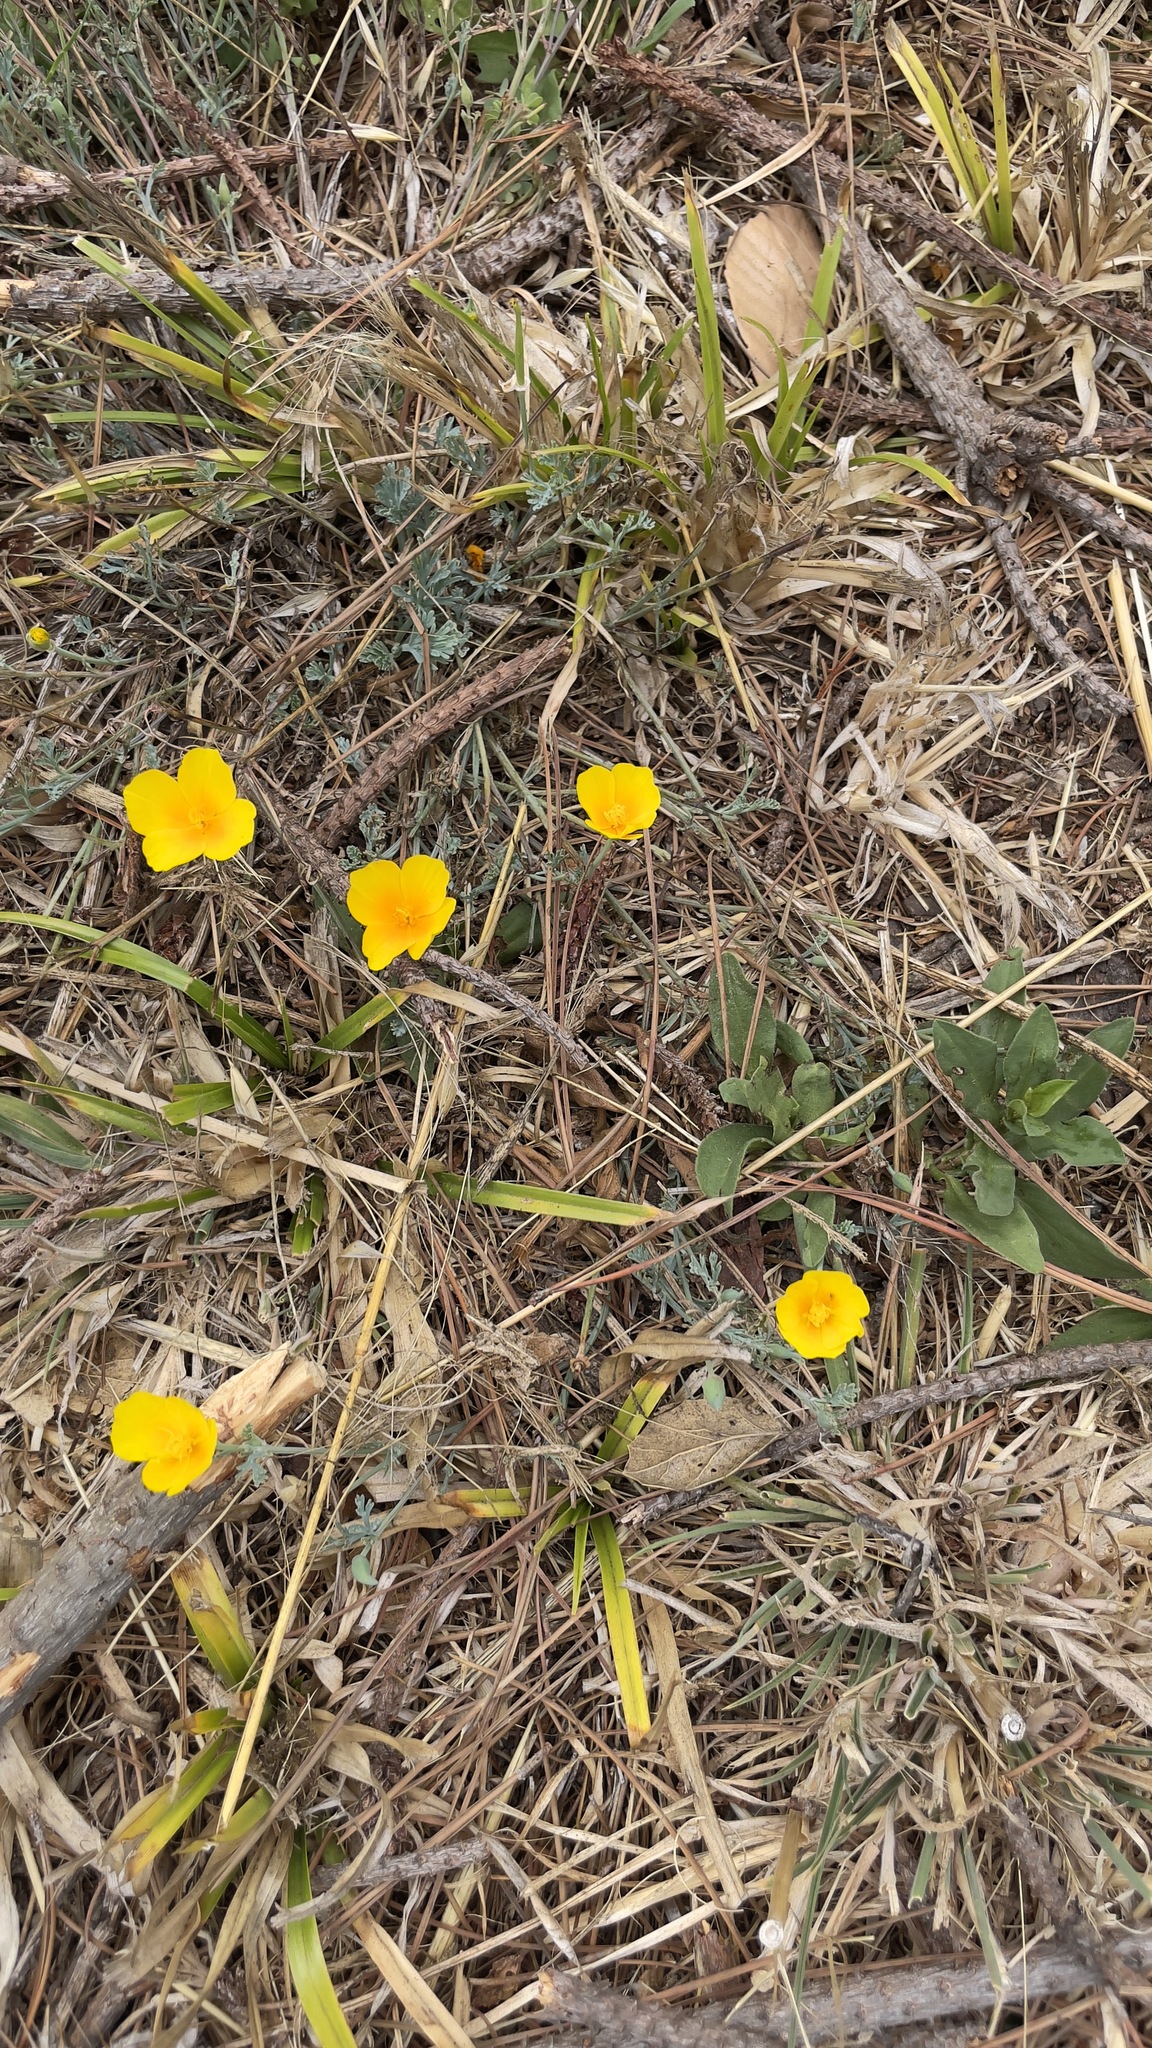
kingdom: Plantae
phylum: Tracheophyta
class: Magnoliopsida
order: Ranunculales
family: Papaveraceae
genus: Eschscholzia
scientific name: Eschscholzia californica
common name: California poppy
